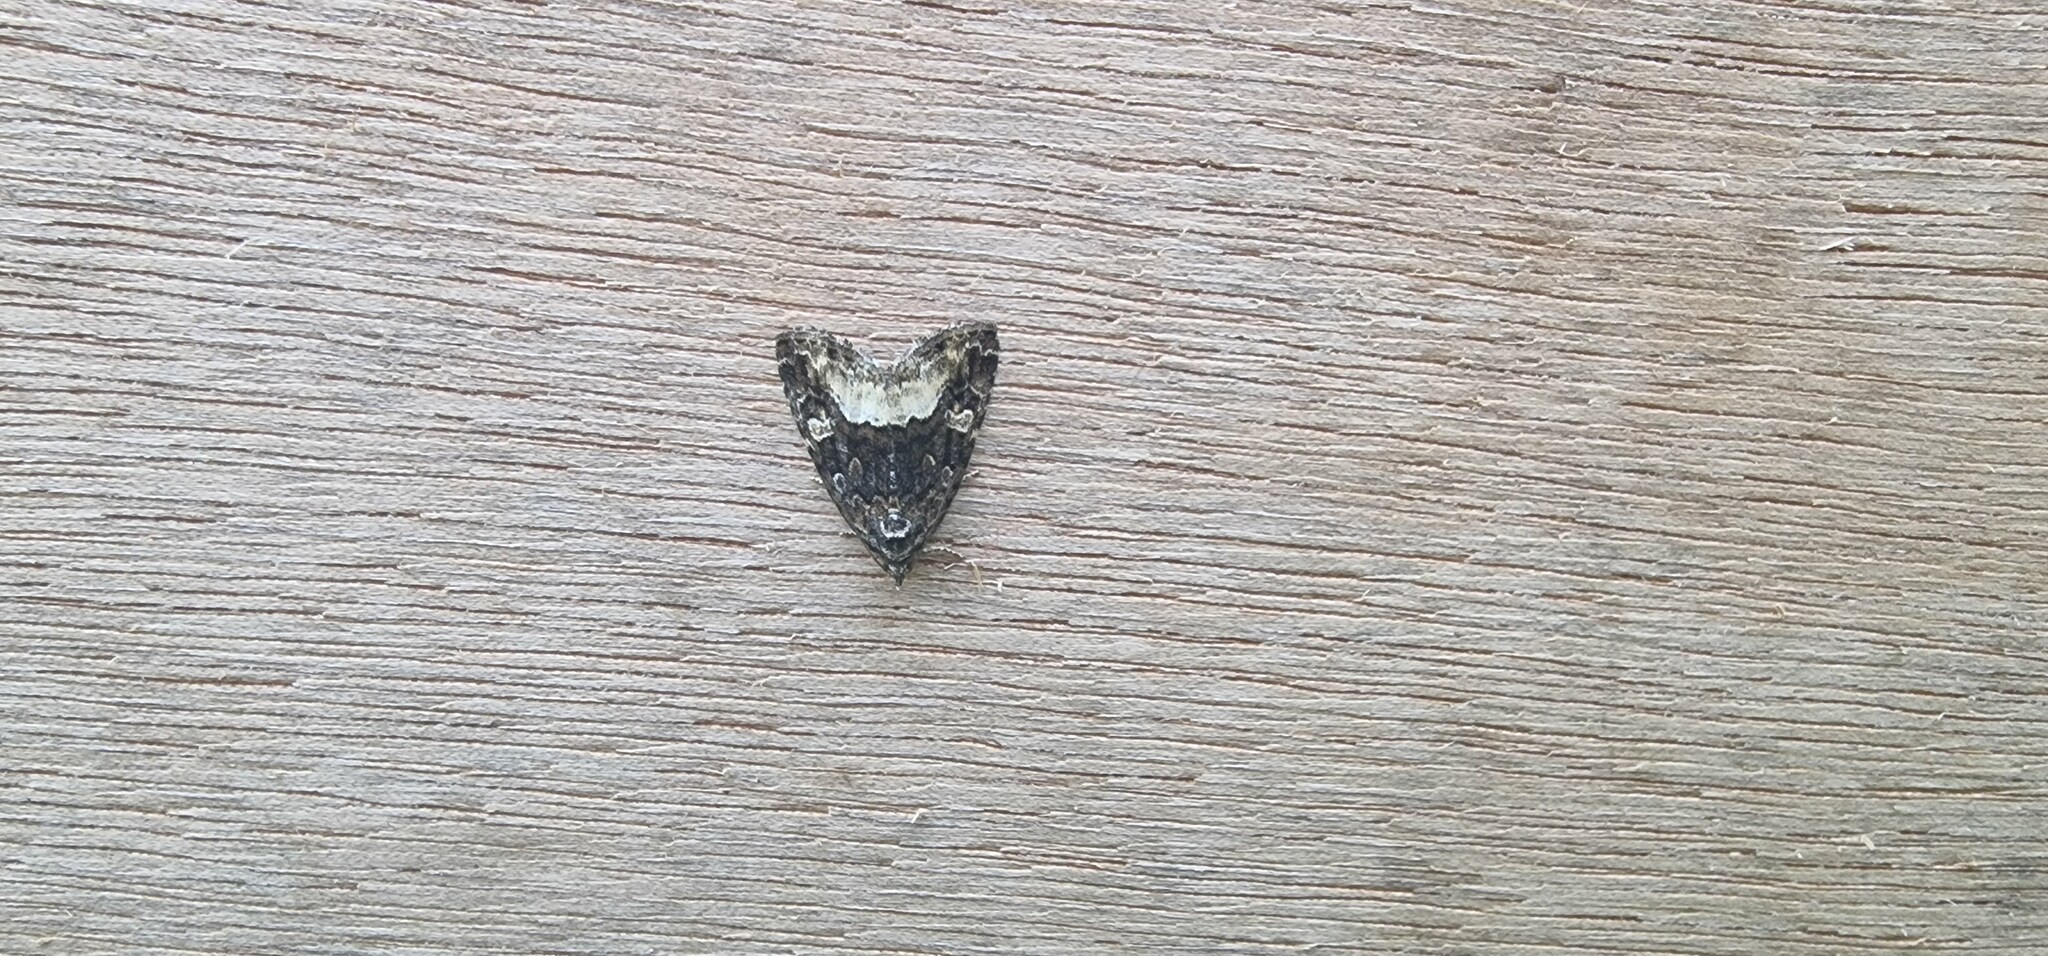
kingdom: Animalia
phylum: Arthropoda
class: Insecta
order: Lepidoptera
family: Noctuidae
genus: Deltote
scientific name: Deltote pygarga
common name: Marbled white spot
